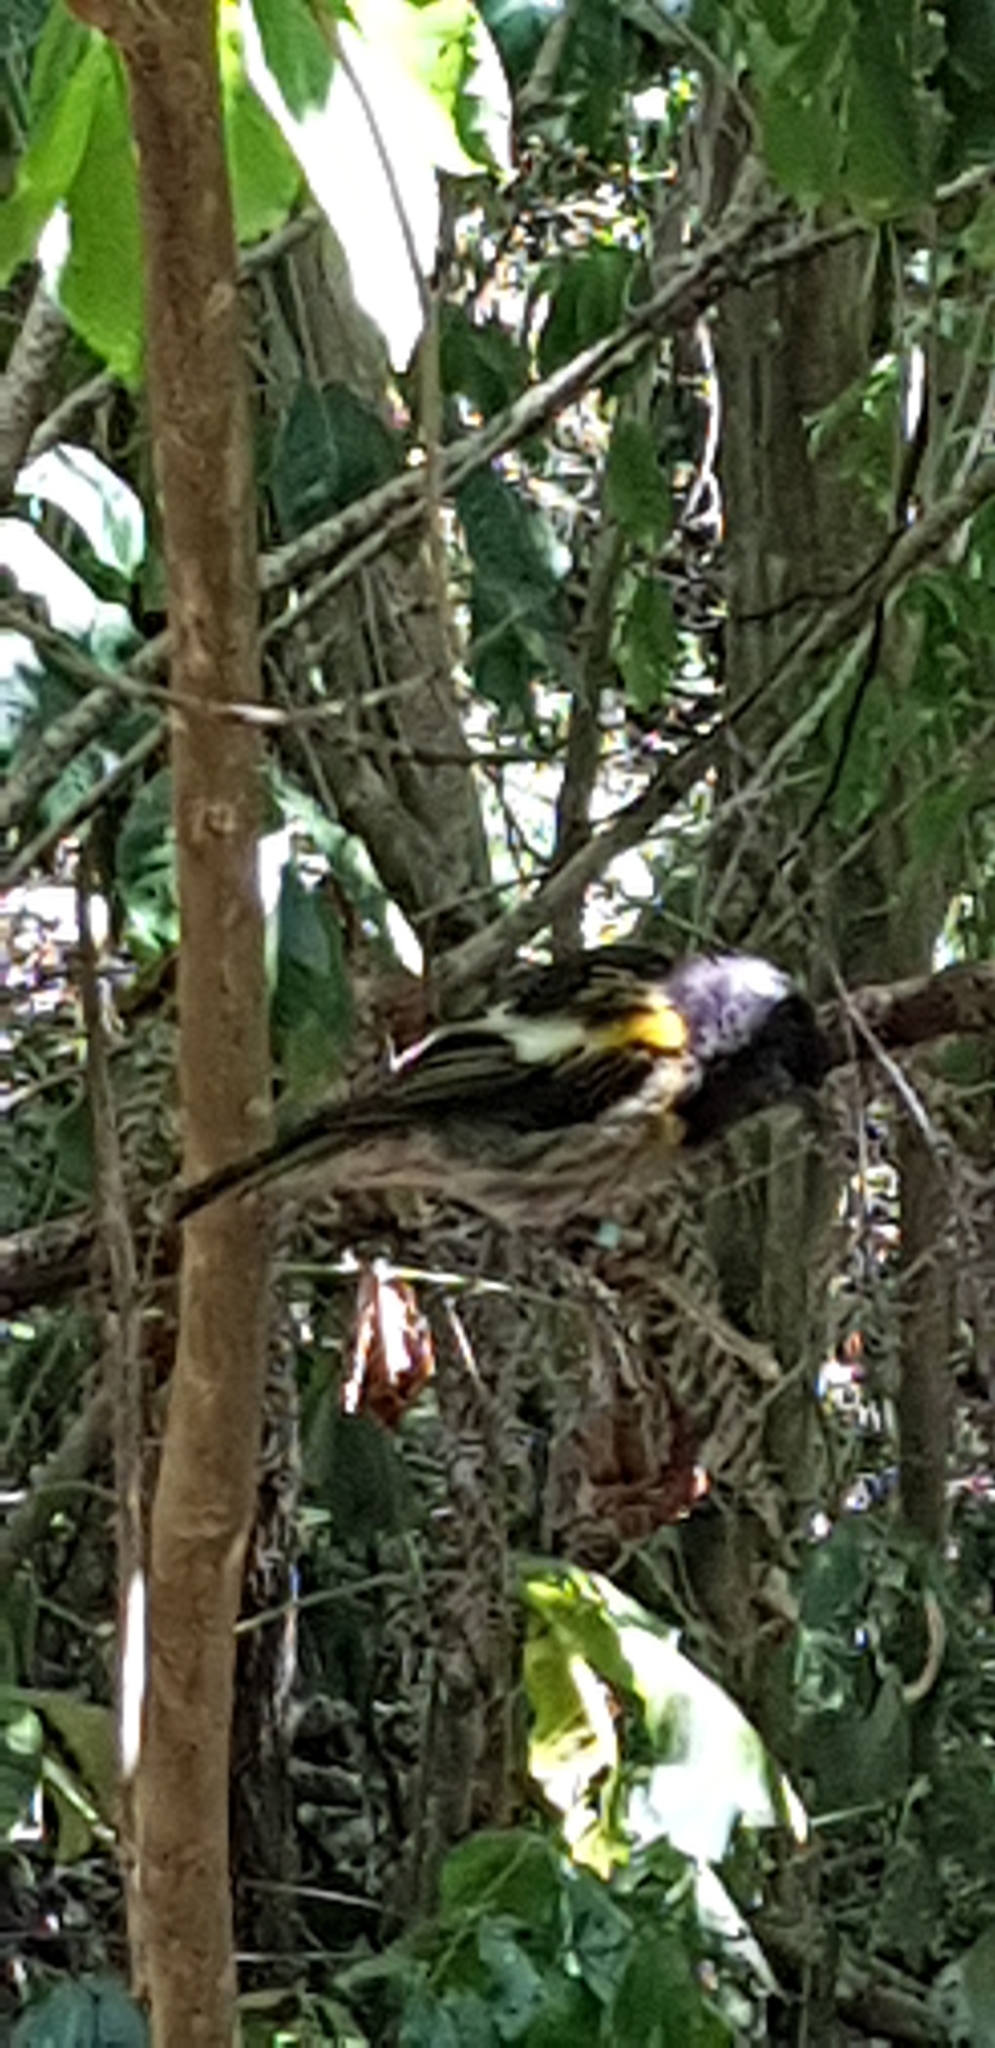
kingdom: Animalia
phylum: Chordata
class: Aves
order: Passeriformes
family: Notiomystidae
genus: Notiomystis
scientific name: Notiomystis cincta
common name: Stitchbird
